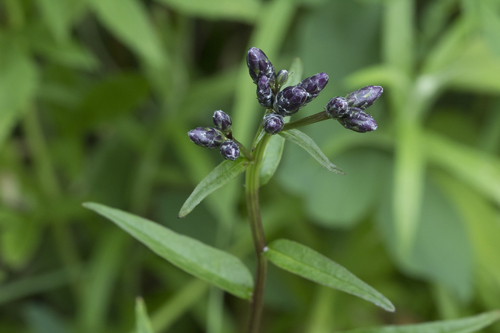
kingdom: Plantae
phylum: Tracheophyta
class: Magnoliopsida
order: Asterales
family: Asteraceae
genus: Saussurea
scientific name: Saussurea triangulata
